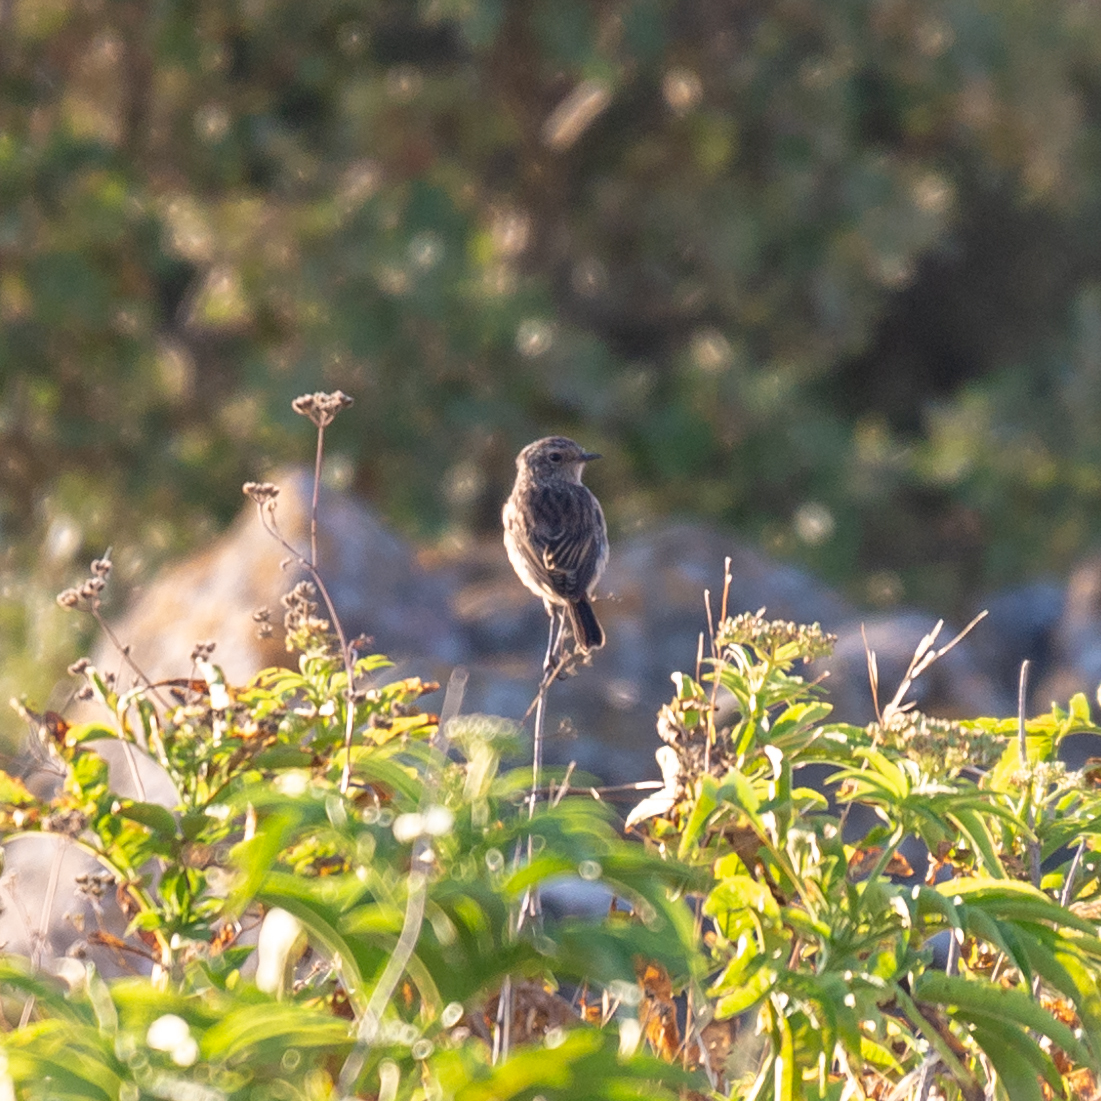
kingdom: Animalia
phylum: Chordata
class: Aves
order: Passeriformes
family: Muscicapidae
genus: Saxicola
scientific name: Saxicola rubicola
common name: European stonechat
